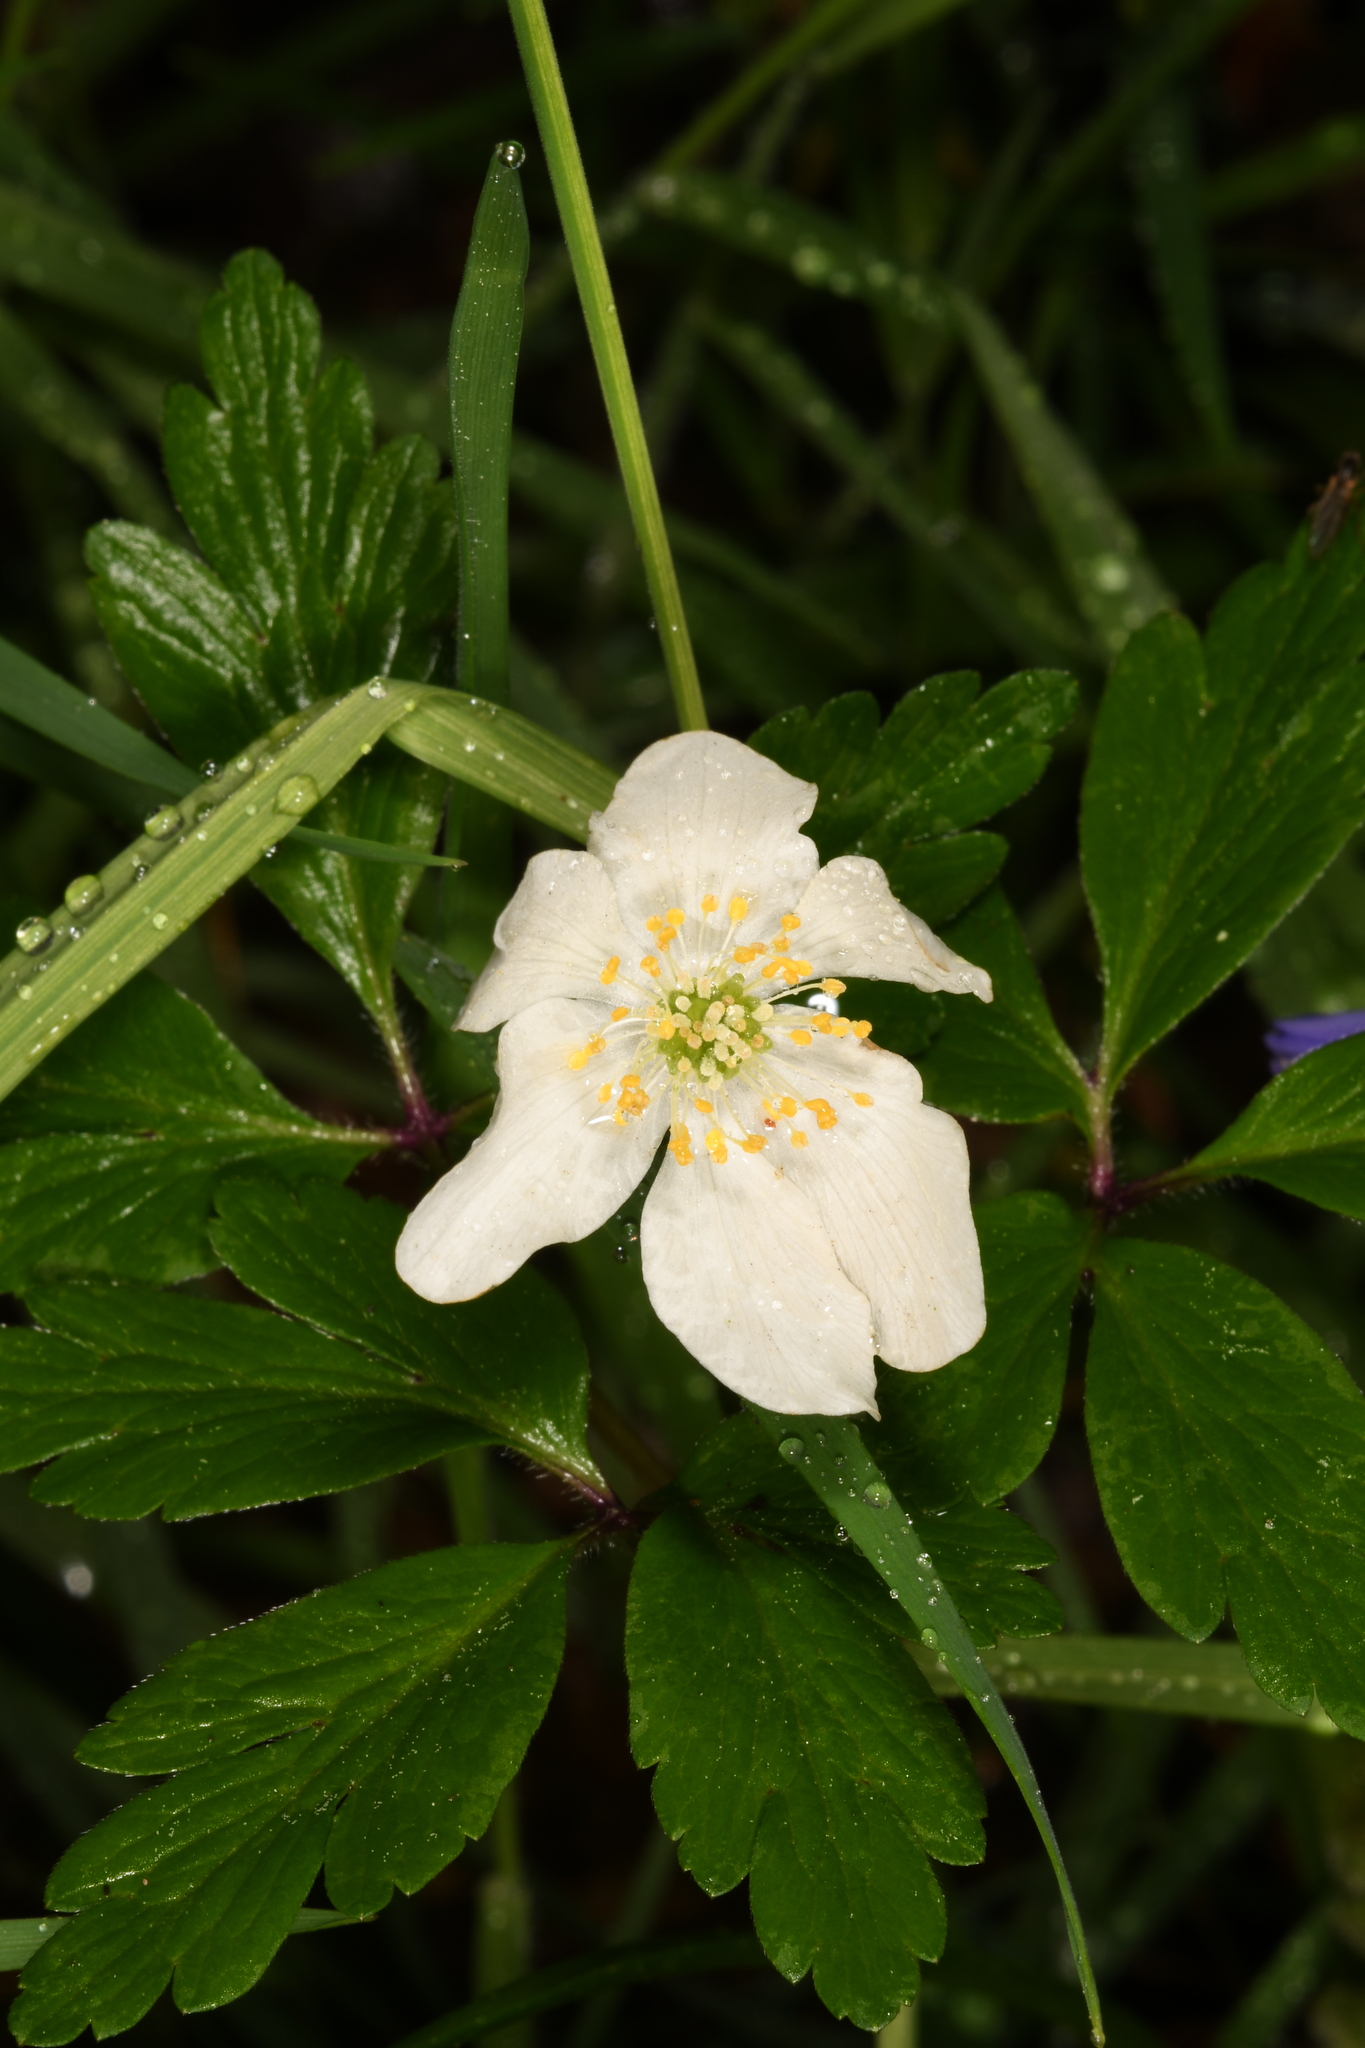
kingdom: Plantae
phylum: Tracheophyta
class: Magnoliopsida
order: Ranunculales
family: Ranunculaceae
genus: Anemone
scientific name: Anemone nemorosa
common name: Wood anemone
